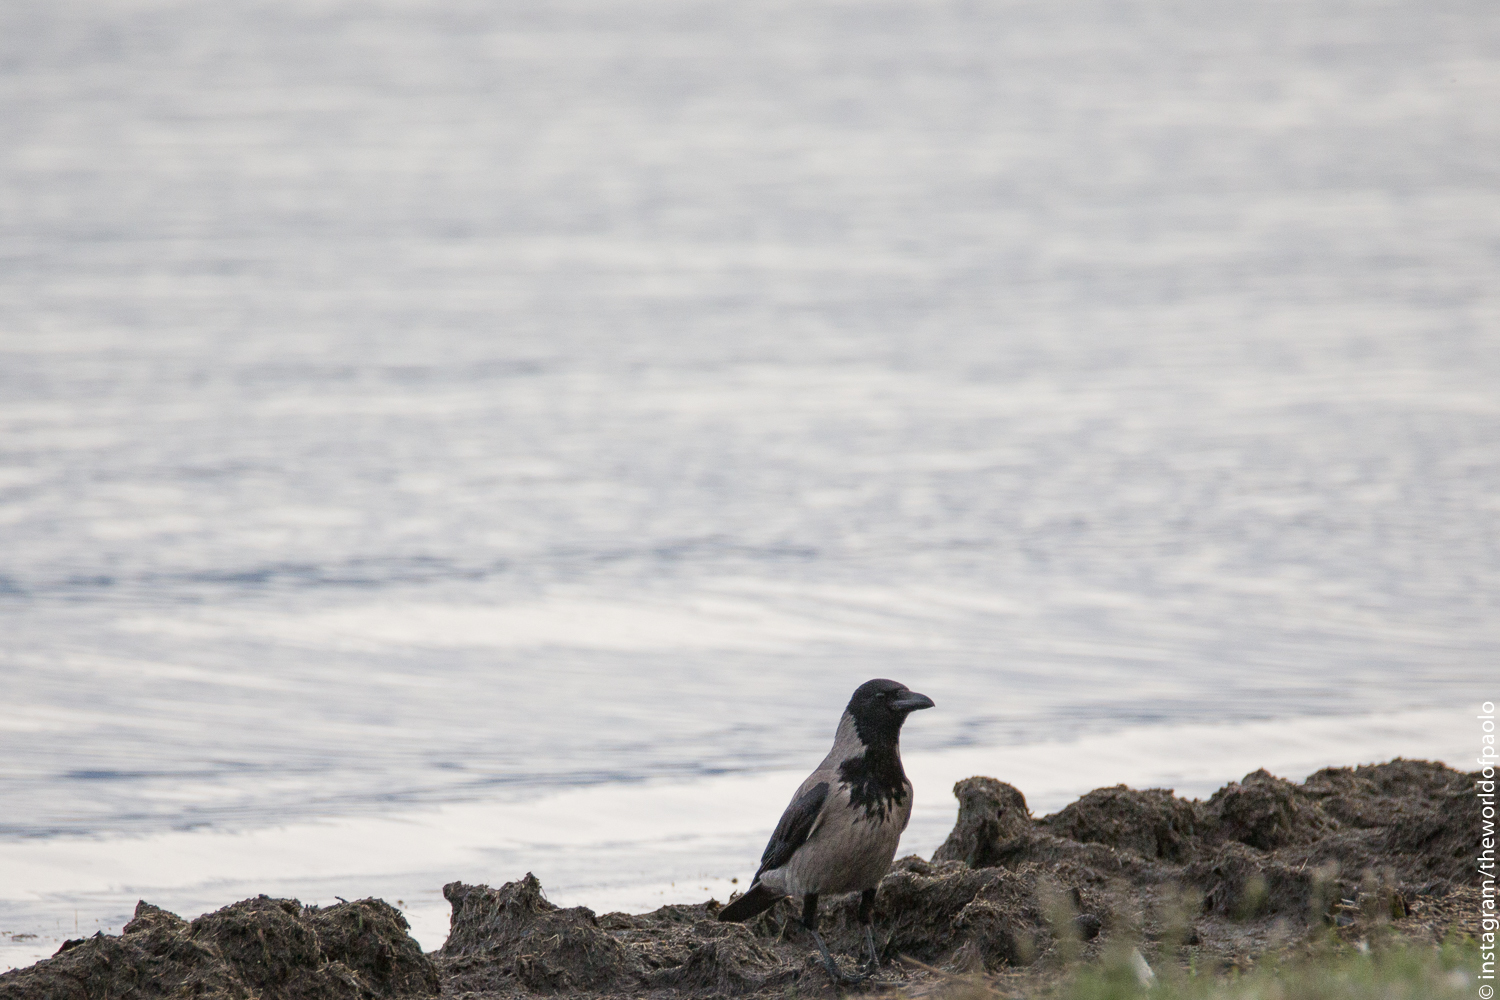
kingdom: Animalia
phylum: Chordata
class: Aves
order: Passeriformes
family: Corvidae
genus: Corvus
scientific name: Corvus cornix
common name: Hooded crow
